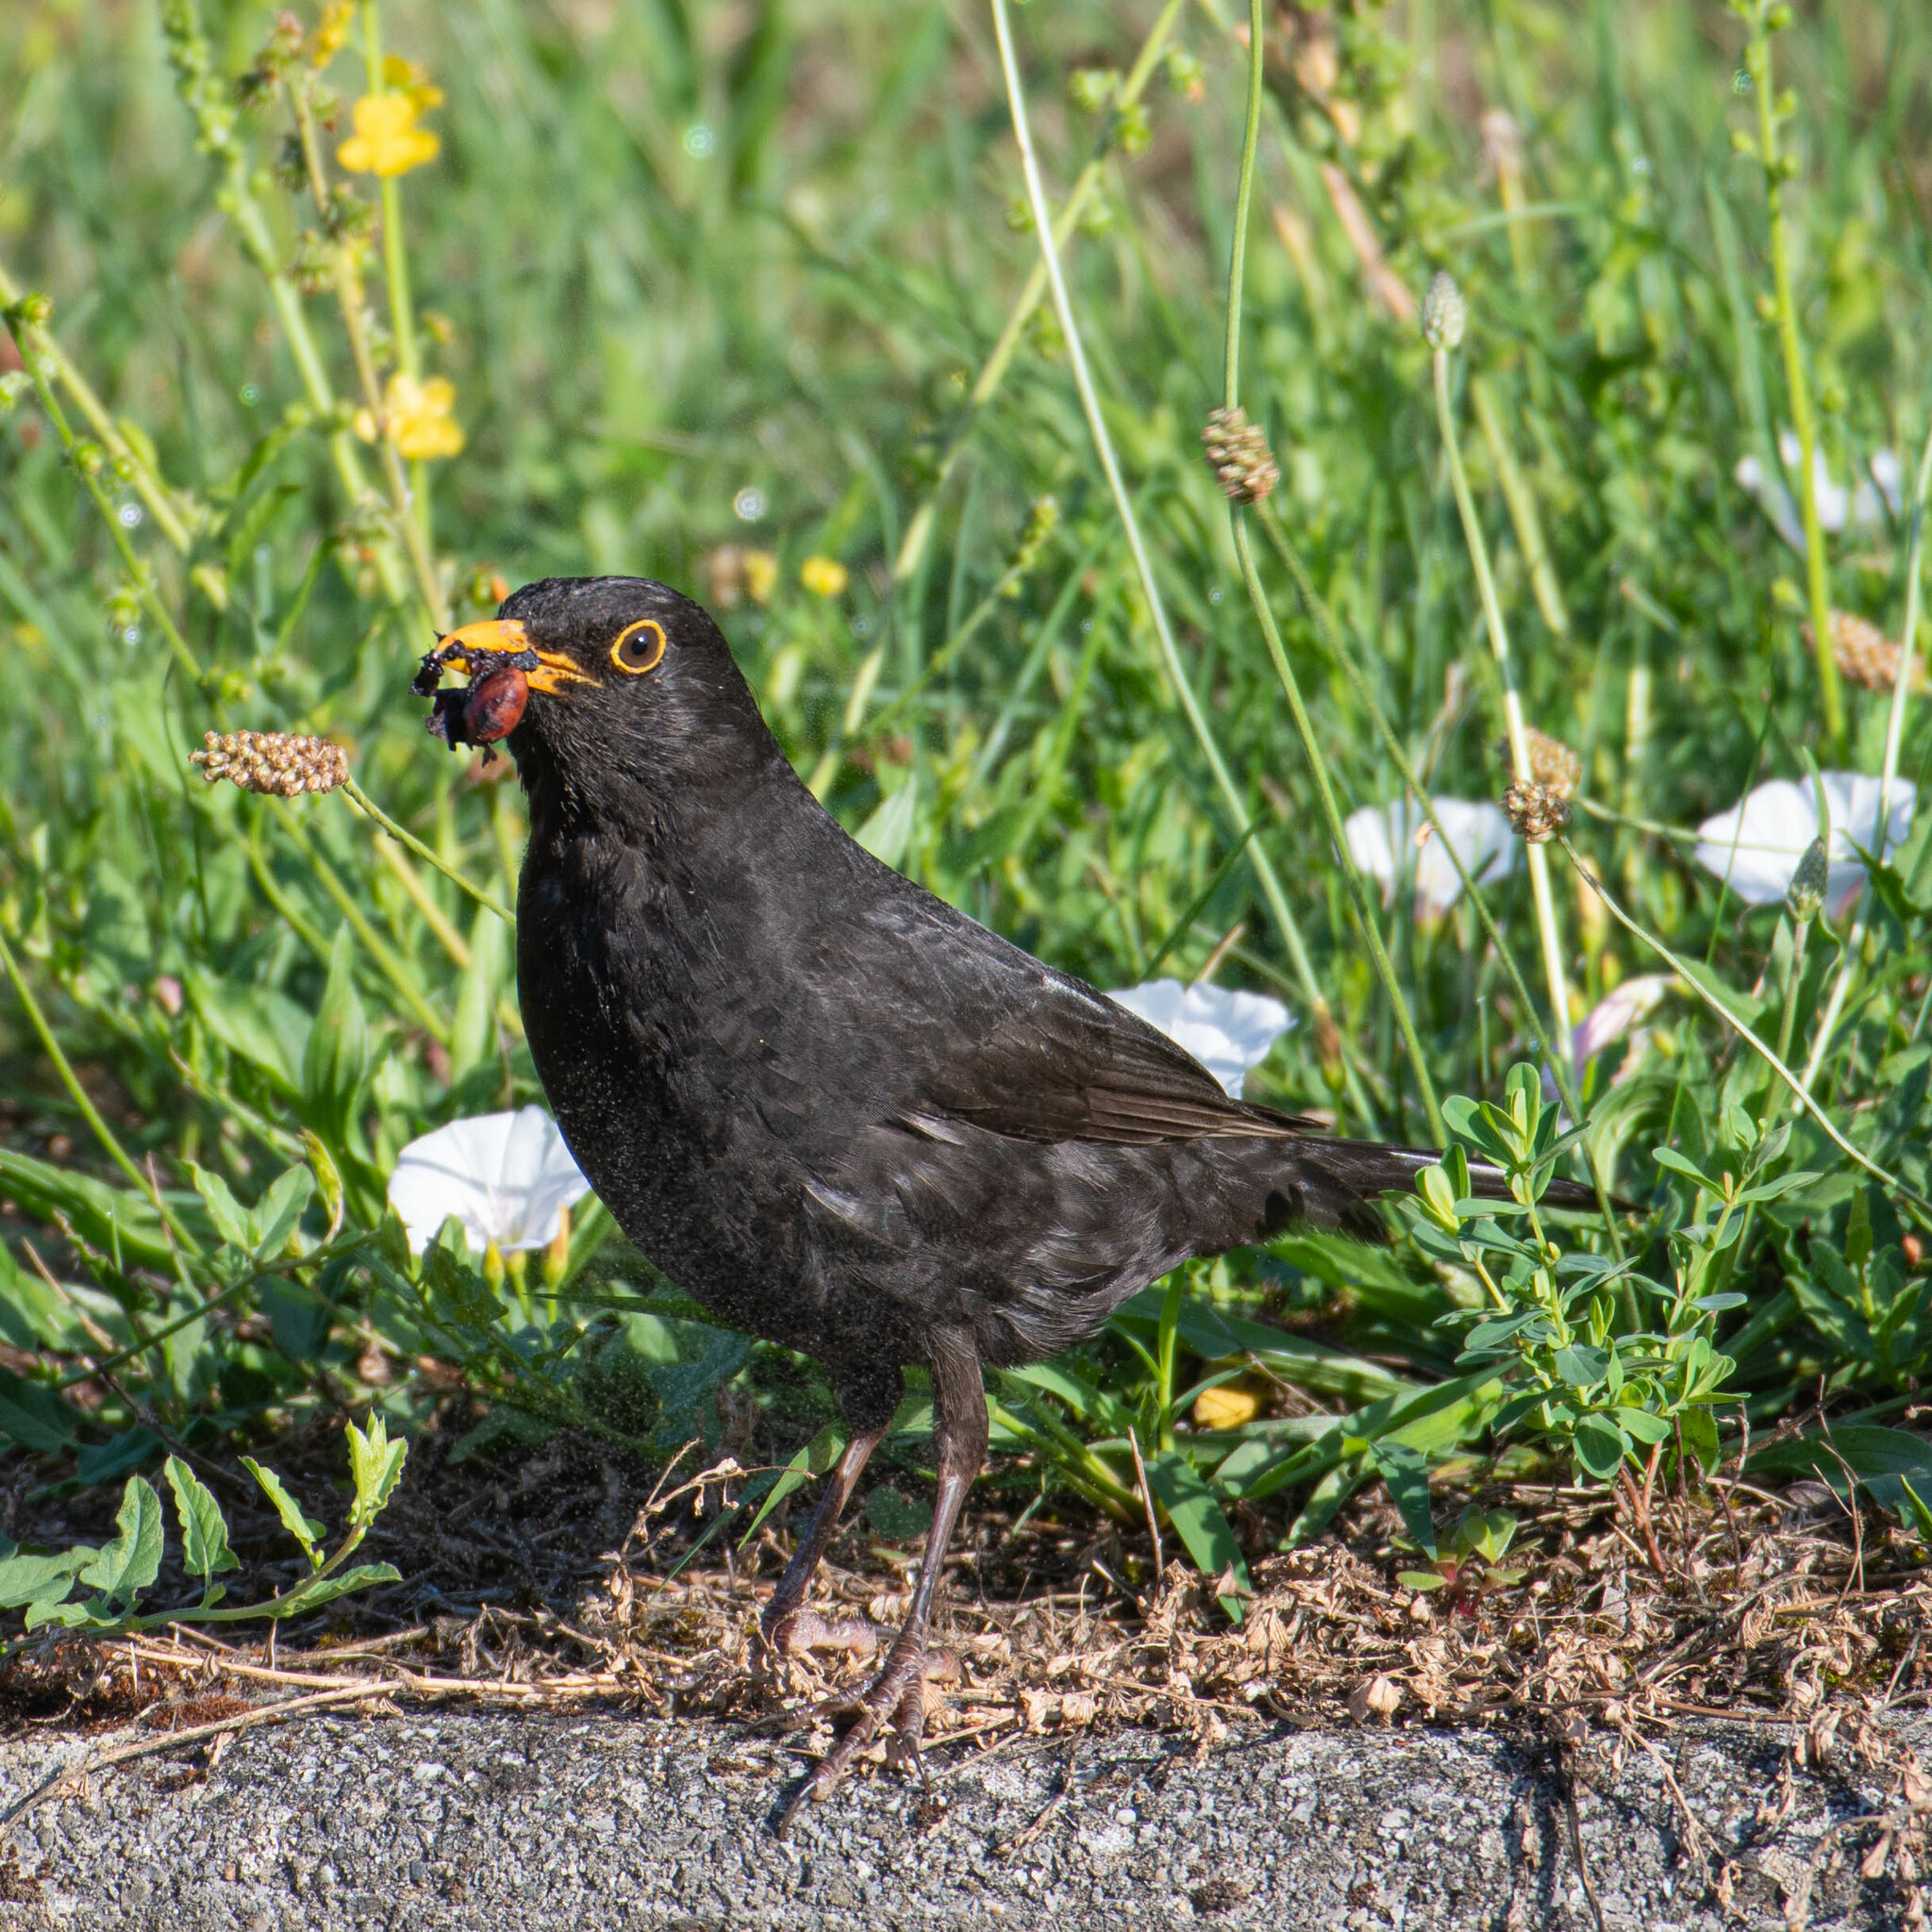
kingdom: Animalia
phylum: Chordata
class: Aves
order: Passeriformes
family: Turdidae
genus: Turdus
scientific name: Turdus merula
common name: Common blackbird
